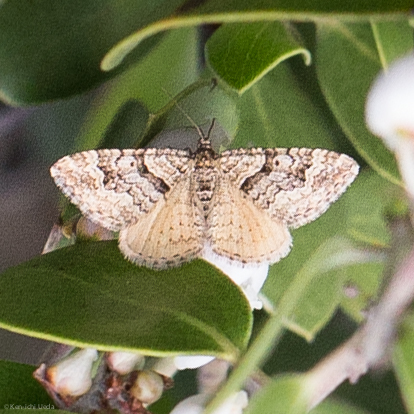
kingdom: Animalia
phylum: Arthropoda
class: Insecta
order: Lepidoptera
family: Geometridae
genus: Epirrhoe
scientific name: Epirrhoe plebeculata
